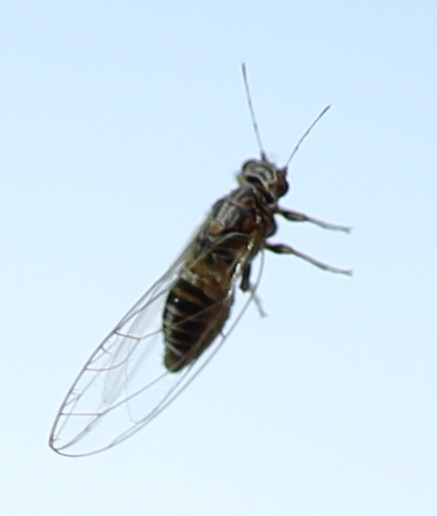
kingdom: Animalia
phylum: Arthropoda
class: Insecta
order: Hemiptera
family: Triozidae
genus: Bactericera
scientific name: Bactericera cockerelli
